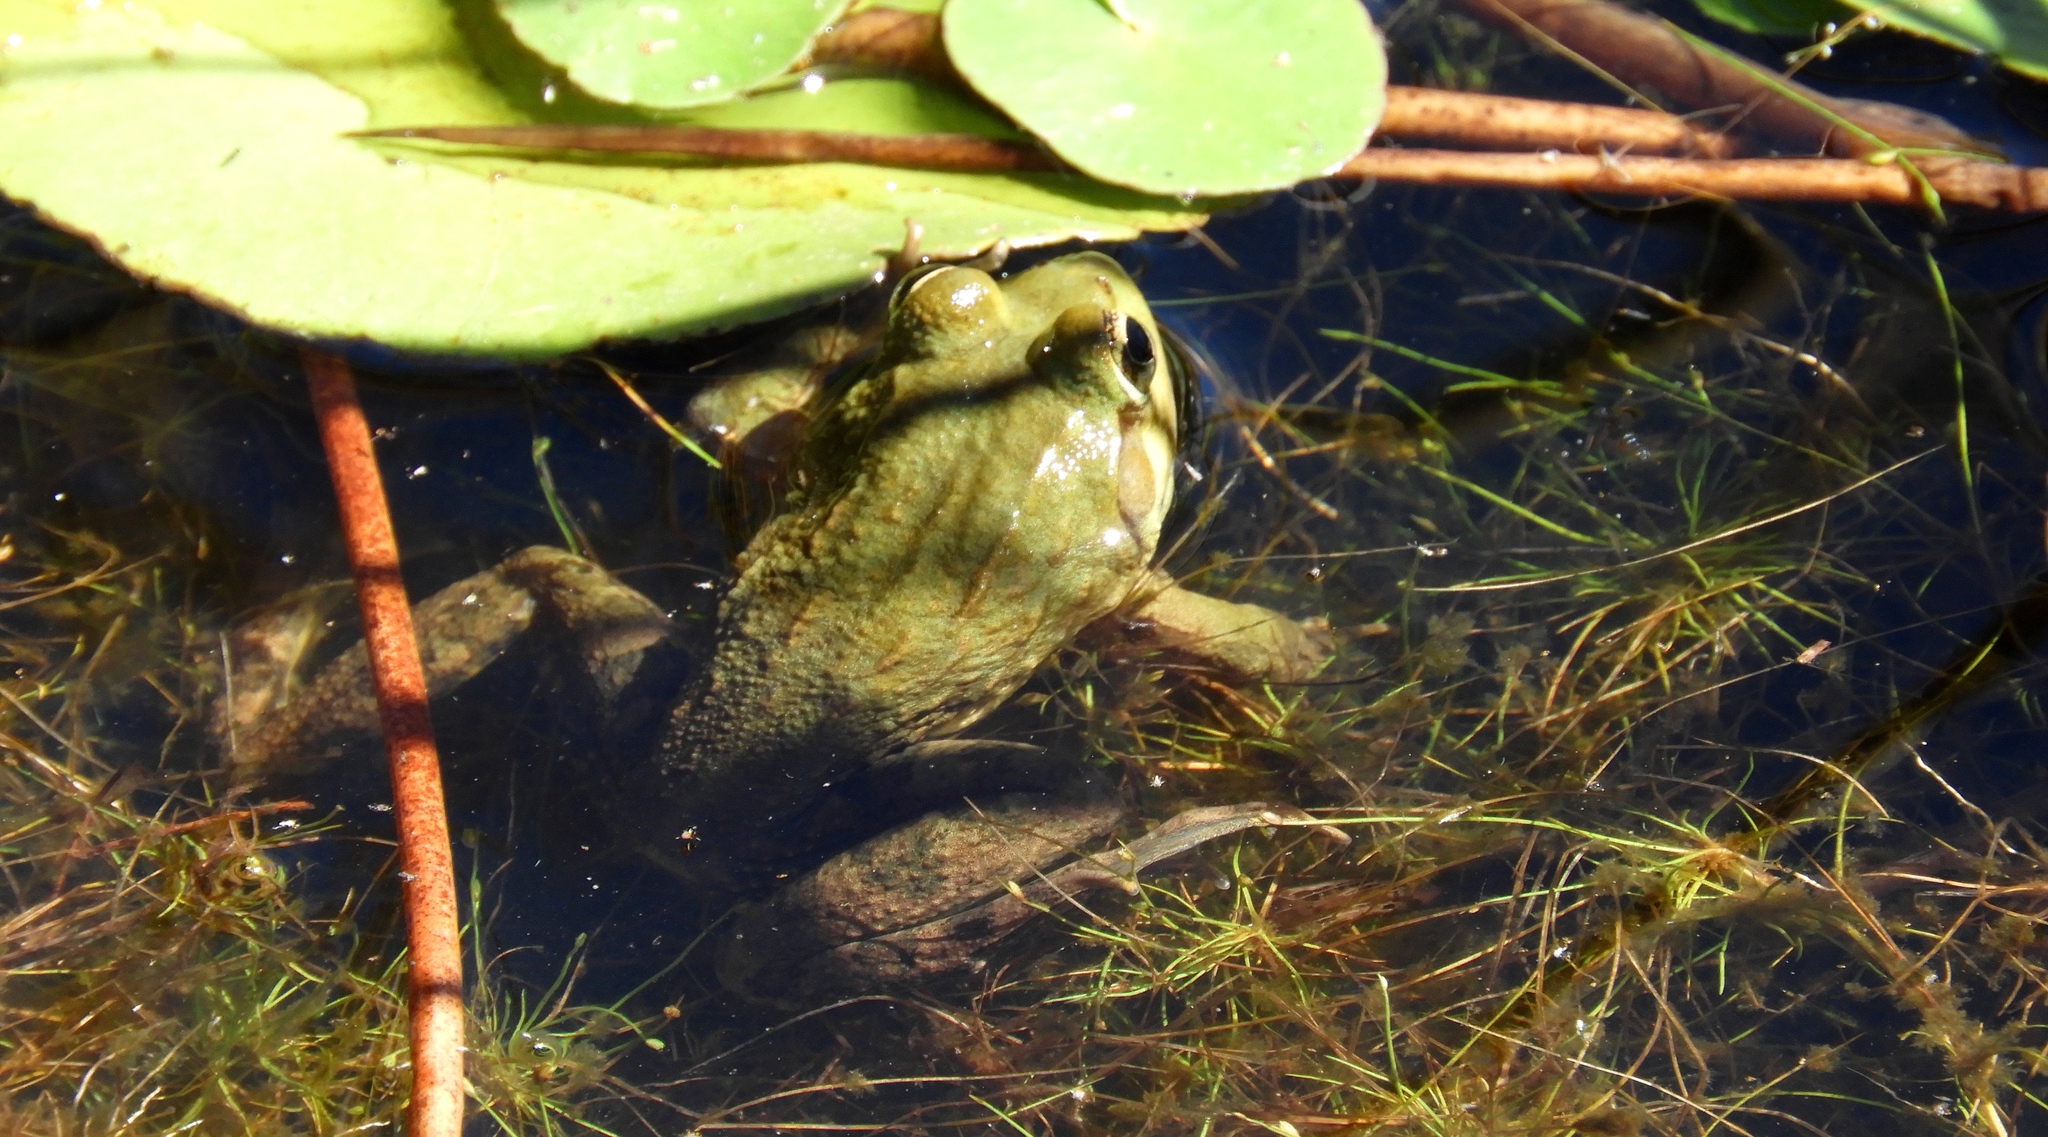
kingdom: Animalia
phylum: Chordata
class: Amphibia
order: Anura
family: Pyxicephalidae
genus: Amietia
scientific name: Amietia fuscigula
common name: Cape rana
